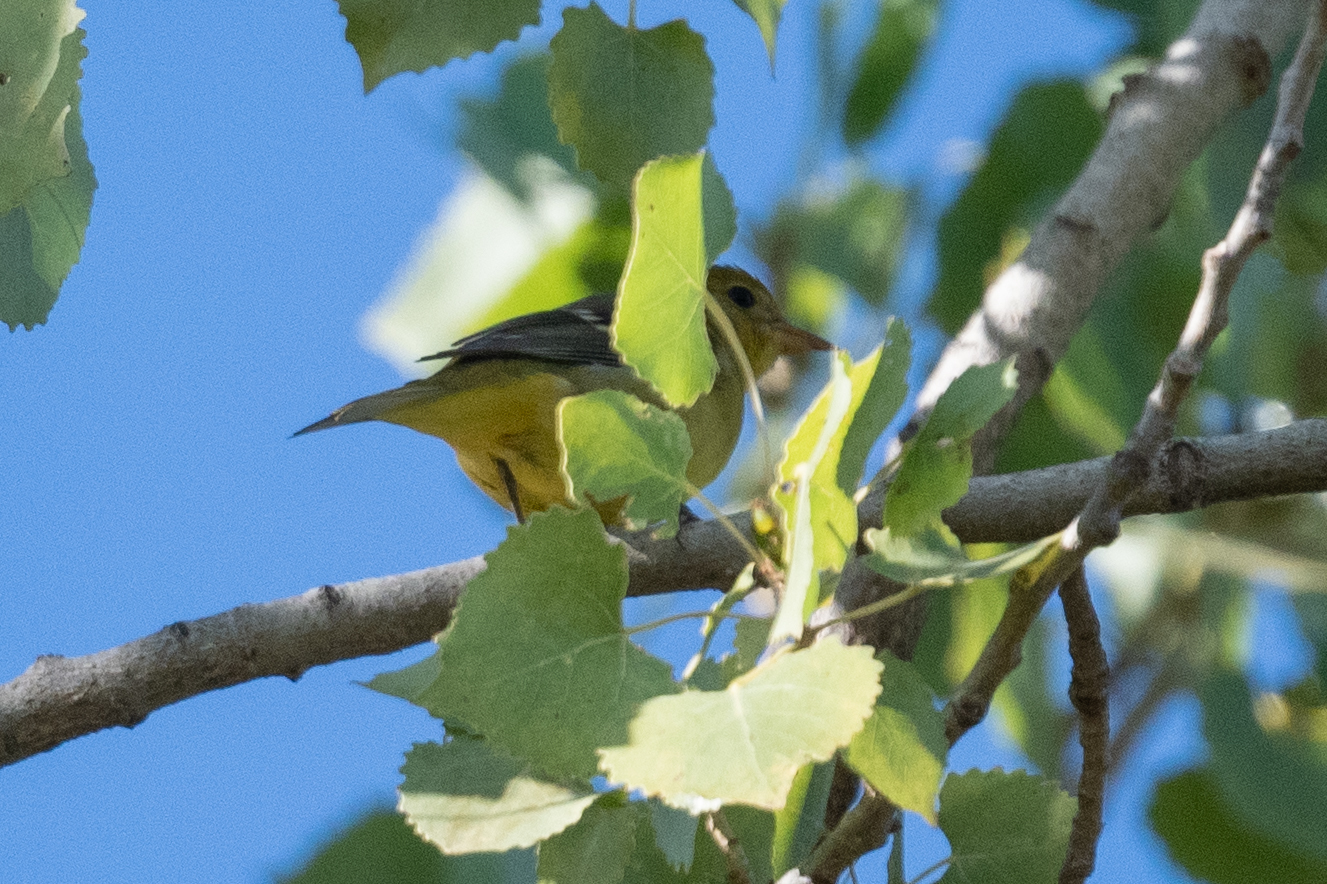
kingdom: Animalia
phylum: Chordata
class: Aves
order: Passeriformes
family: Cardinalidae
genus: Piranga
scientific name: Piranga ludoviciana
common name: Western tanager
